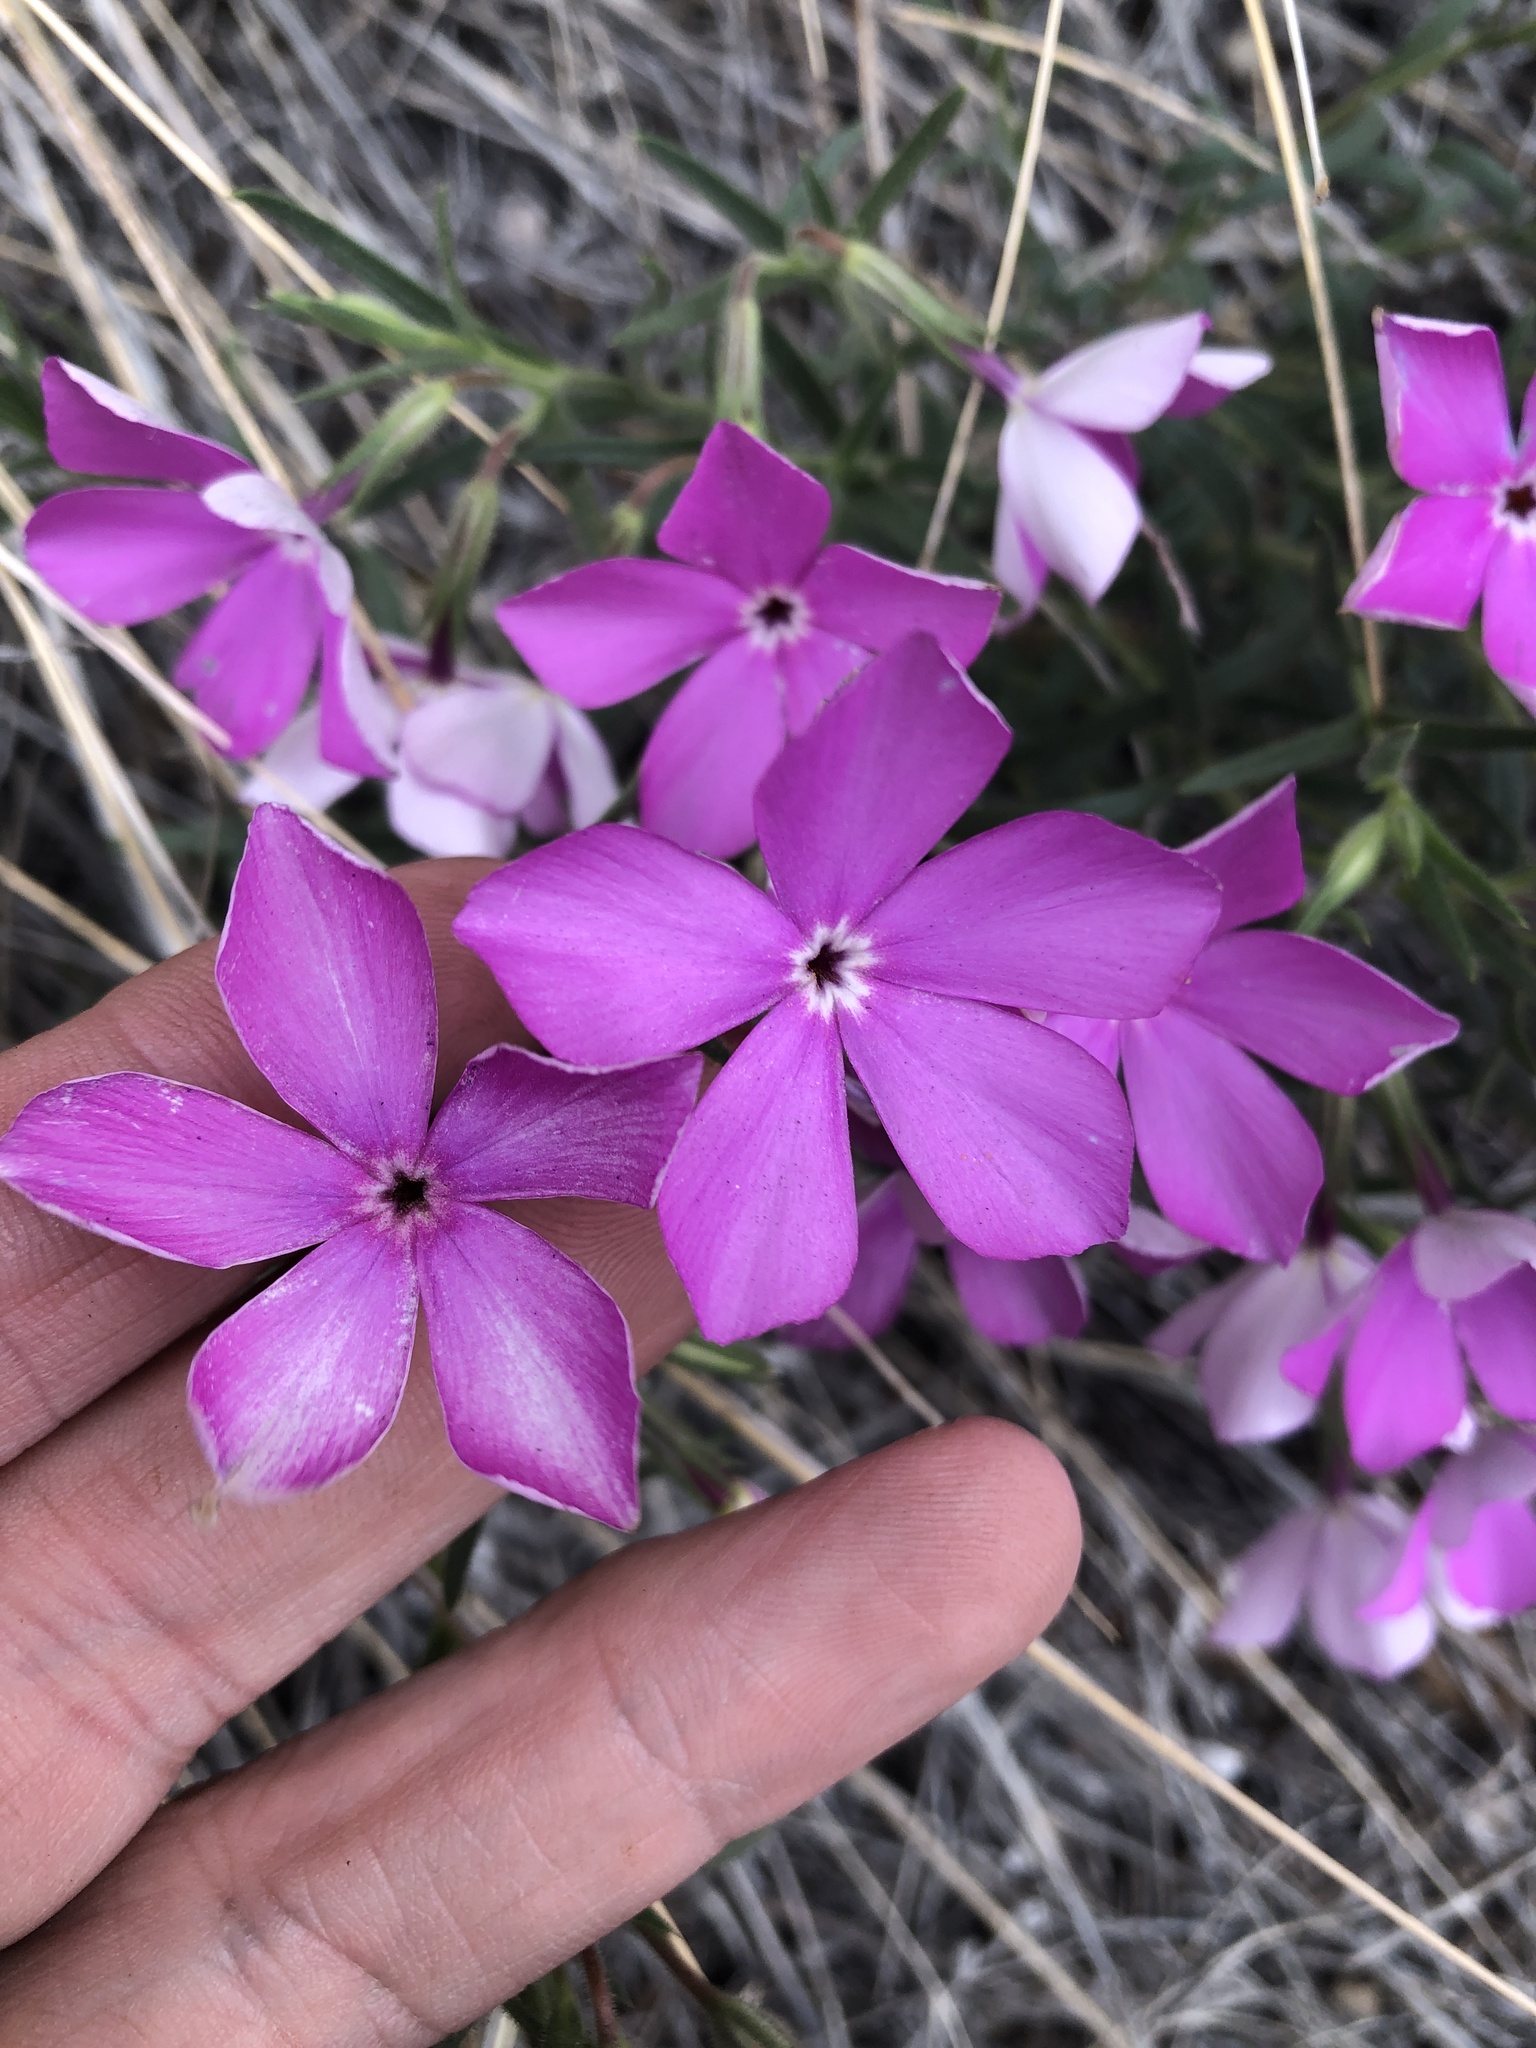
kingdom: Plantae
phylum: Tracheophyta
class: Magnoliopsida
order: Ericales
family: Polemoniaceae
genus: Phlox
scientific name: Phlox nana
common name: Santa fe phlox
